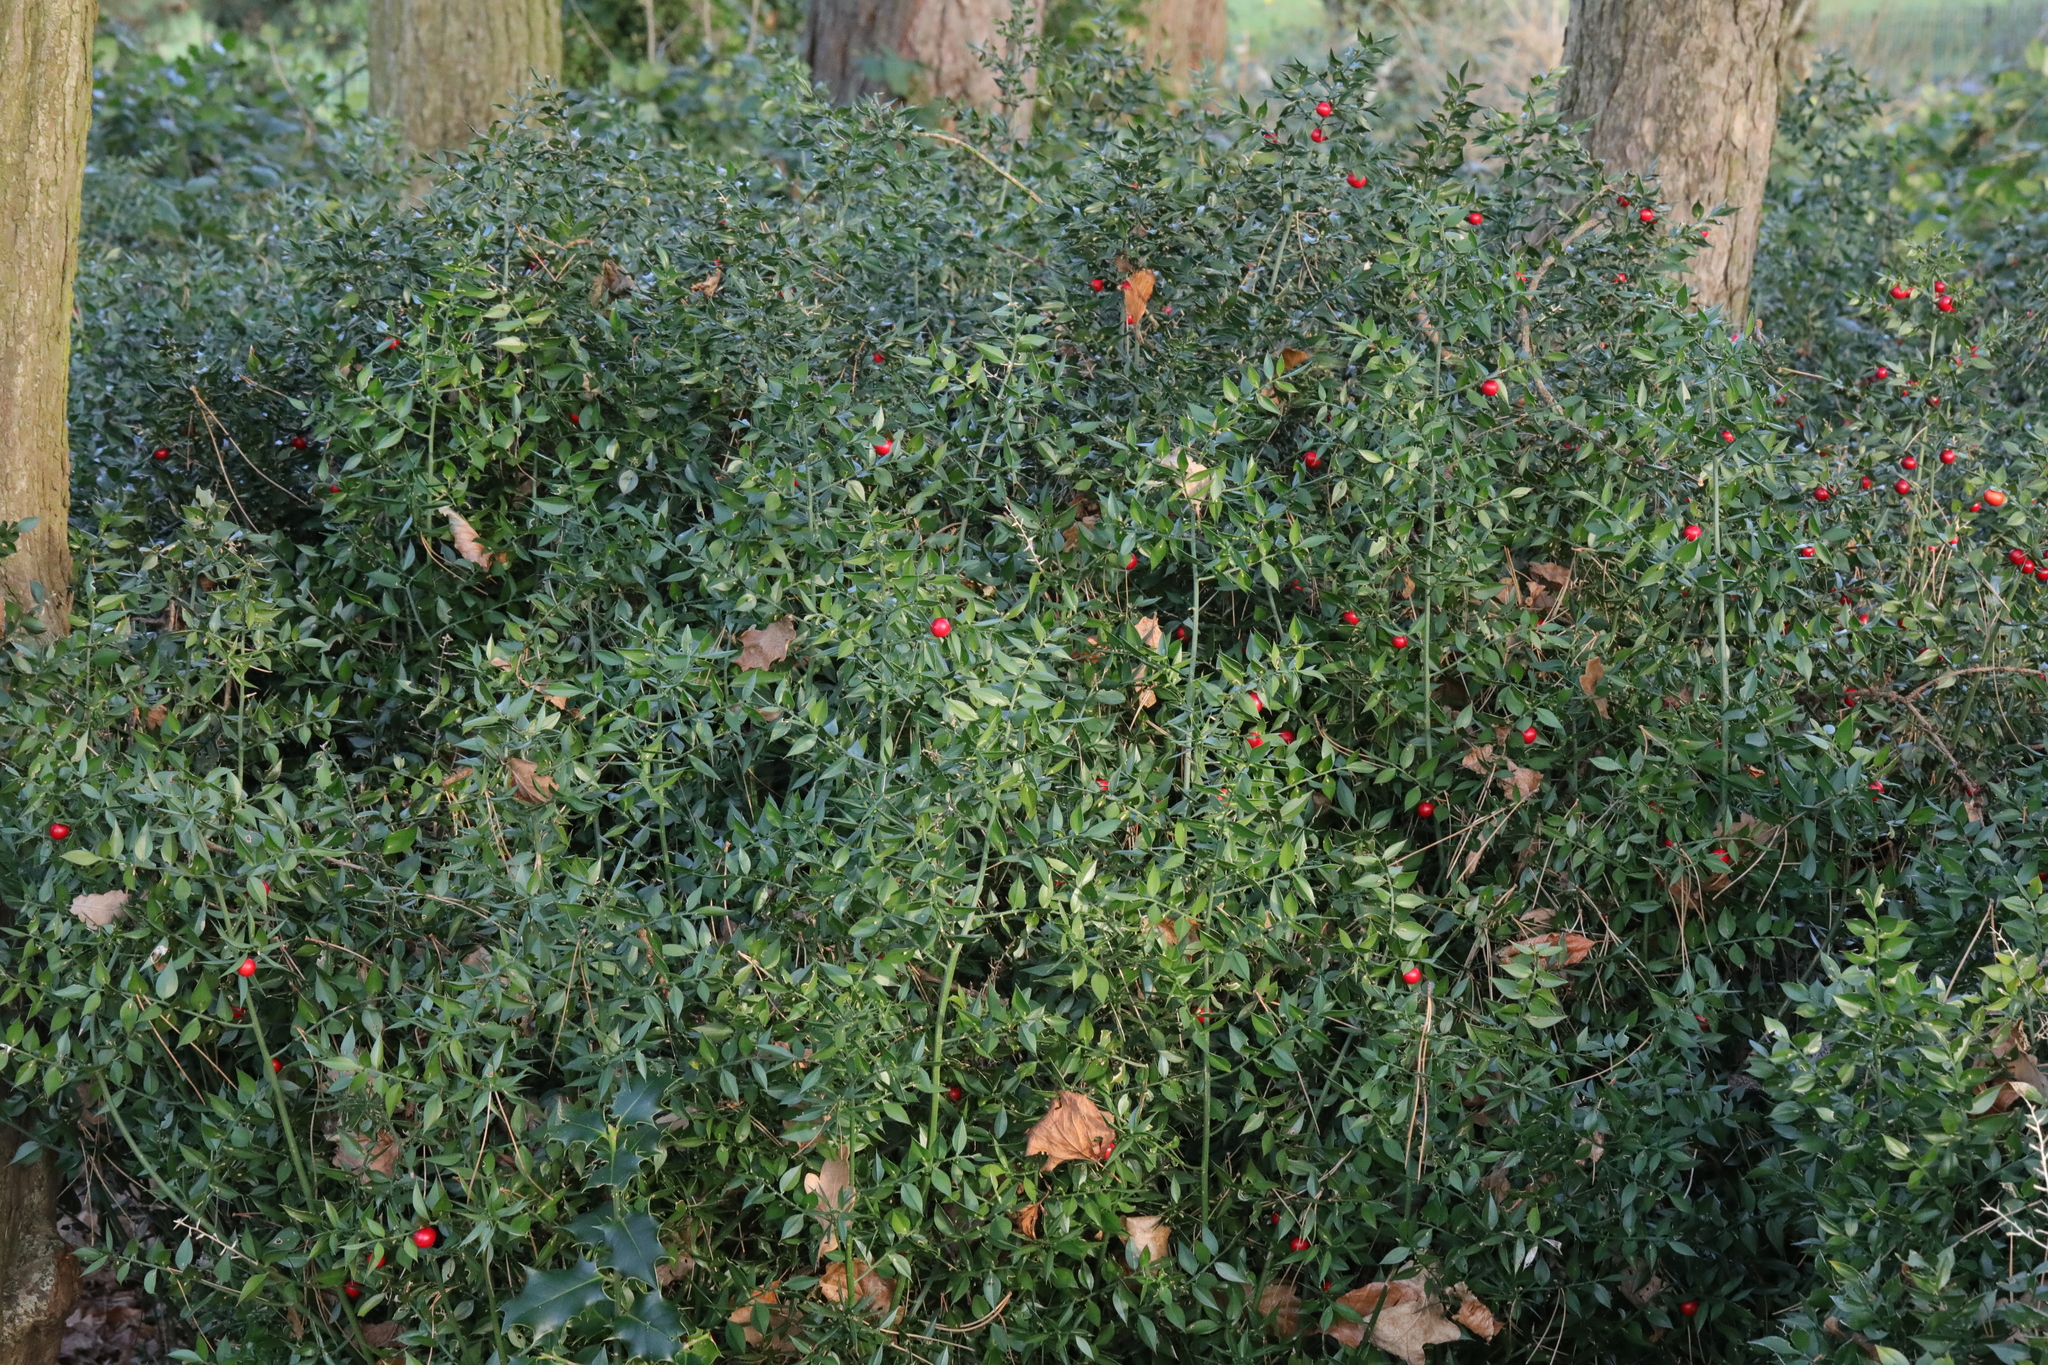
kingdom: Plantae
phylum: Tracheophyta
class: Liliopsida
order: Asparagales
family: Asparagaceae
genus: Ruscus
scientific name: Ruscus aculeatus
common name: Butcher's-broom
